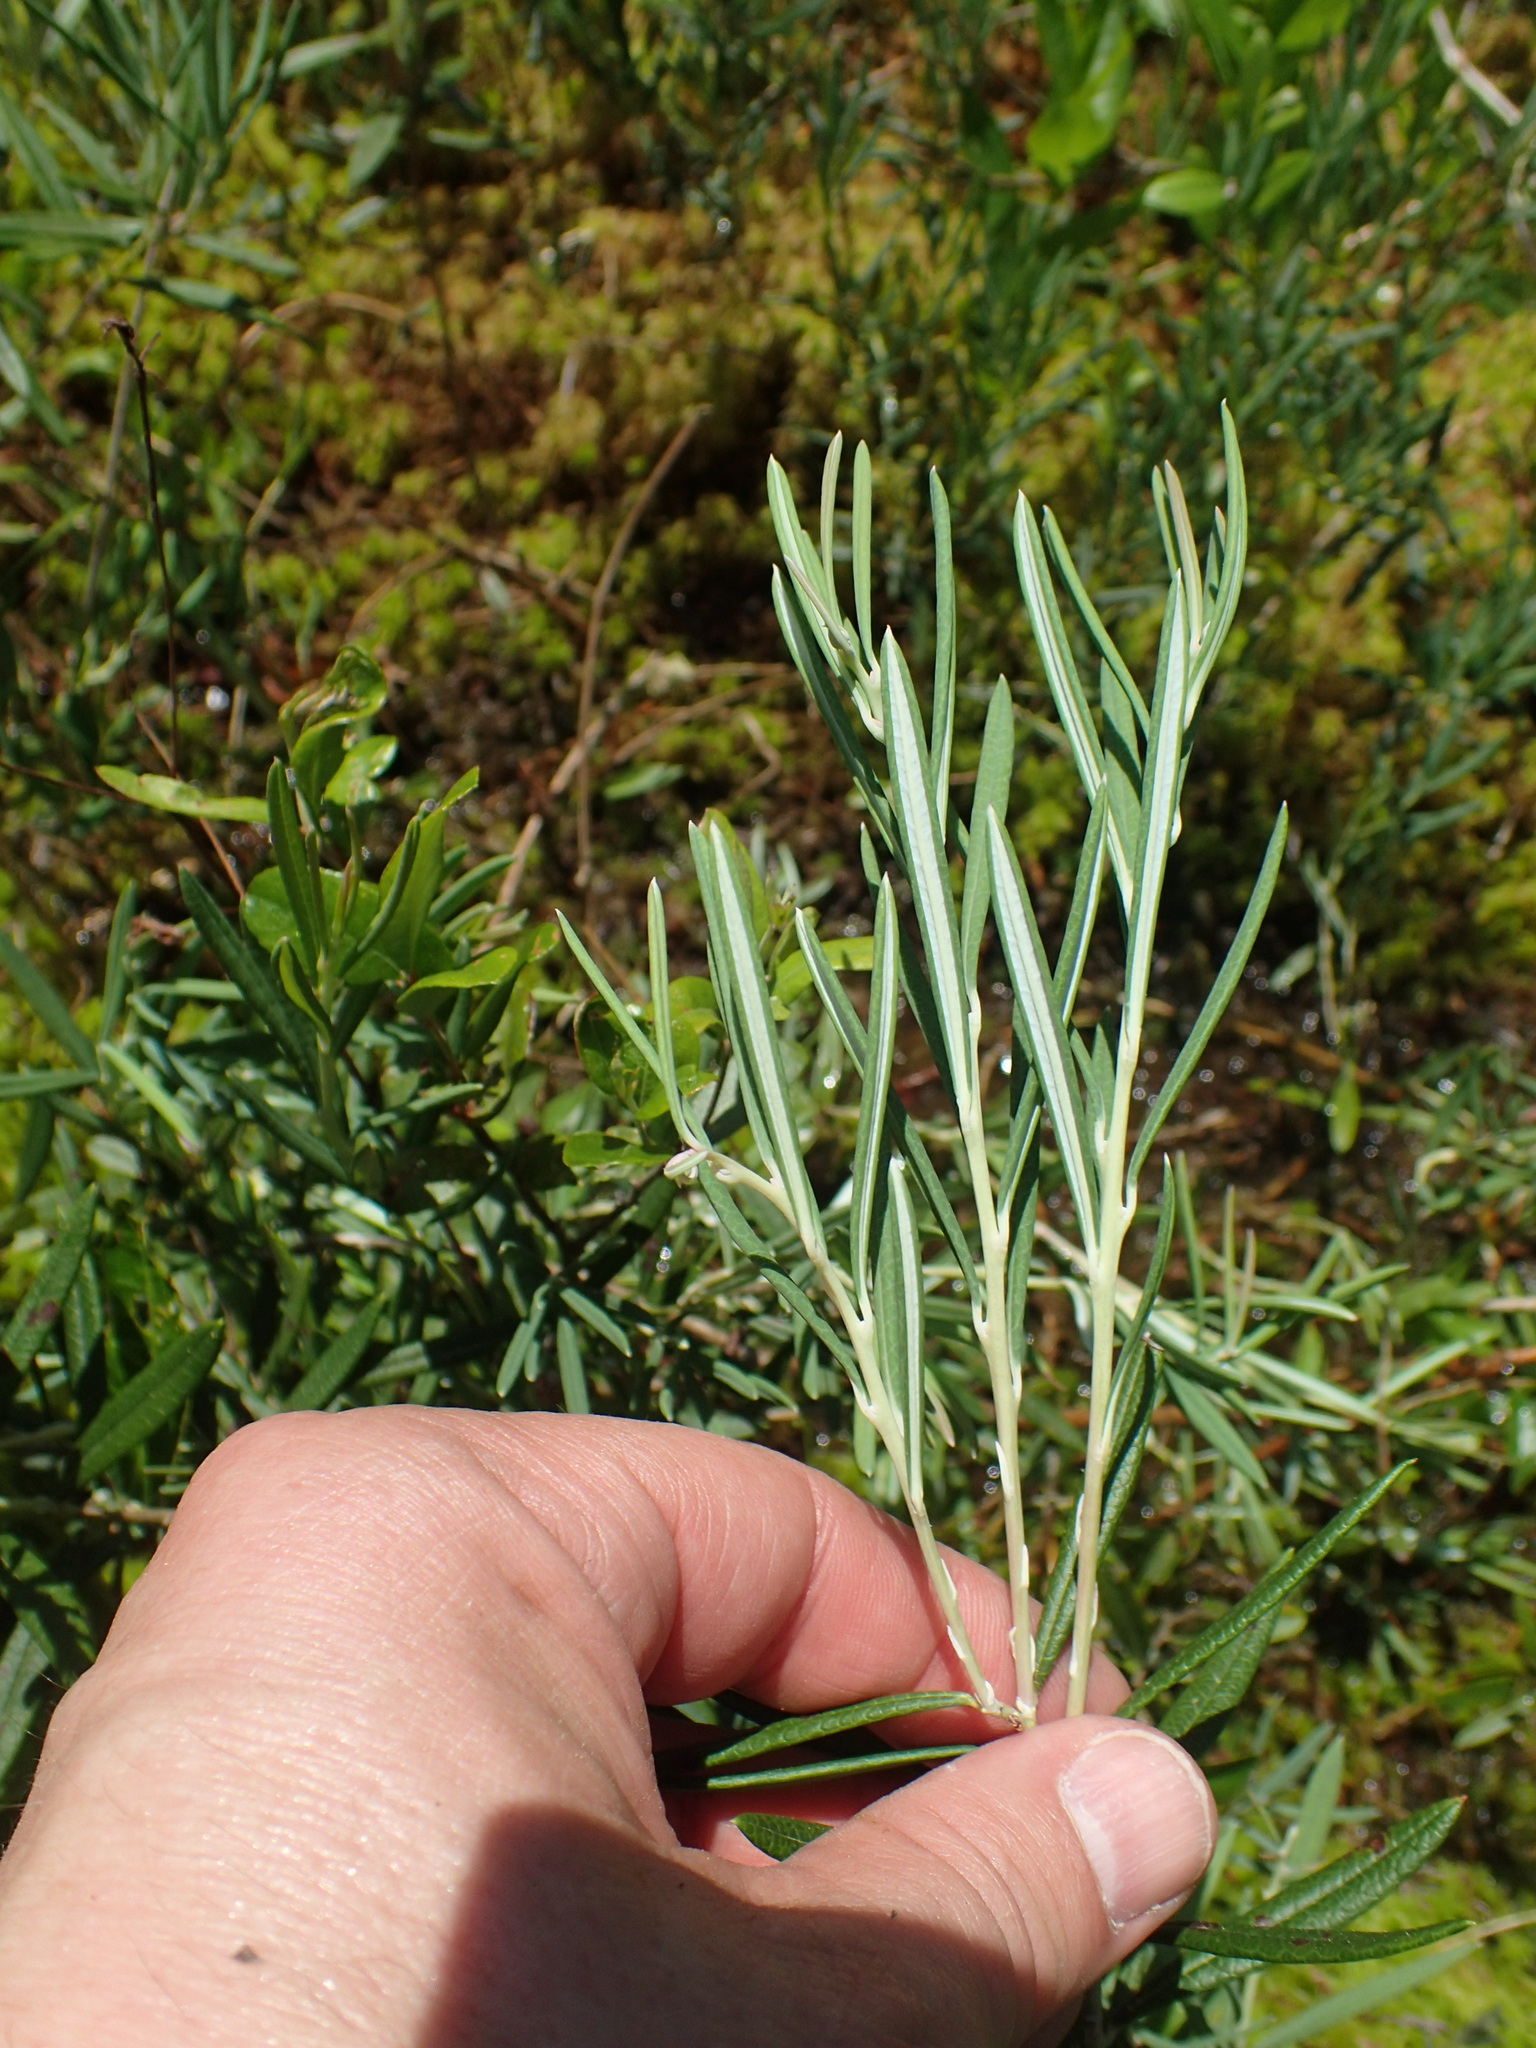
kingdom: Plantae
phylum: Tracheophyta
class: Magnoliopsida
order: Ericales
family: Ericaceae
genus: Andromeda
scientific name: Andromeda polifolia
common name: Bog-rosemary
